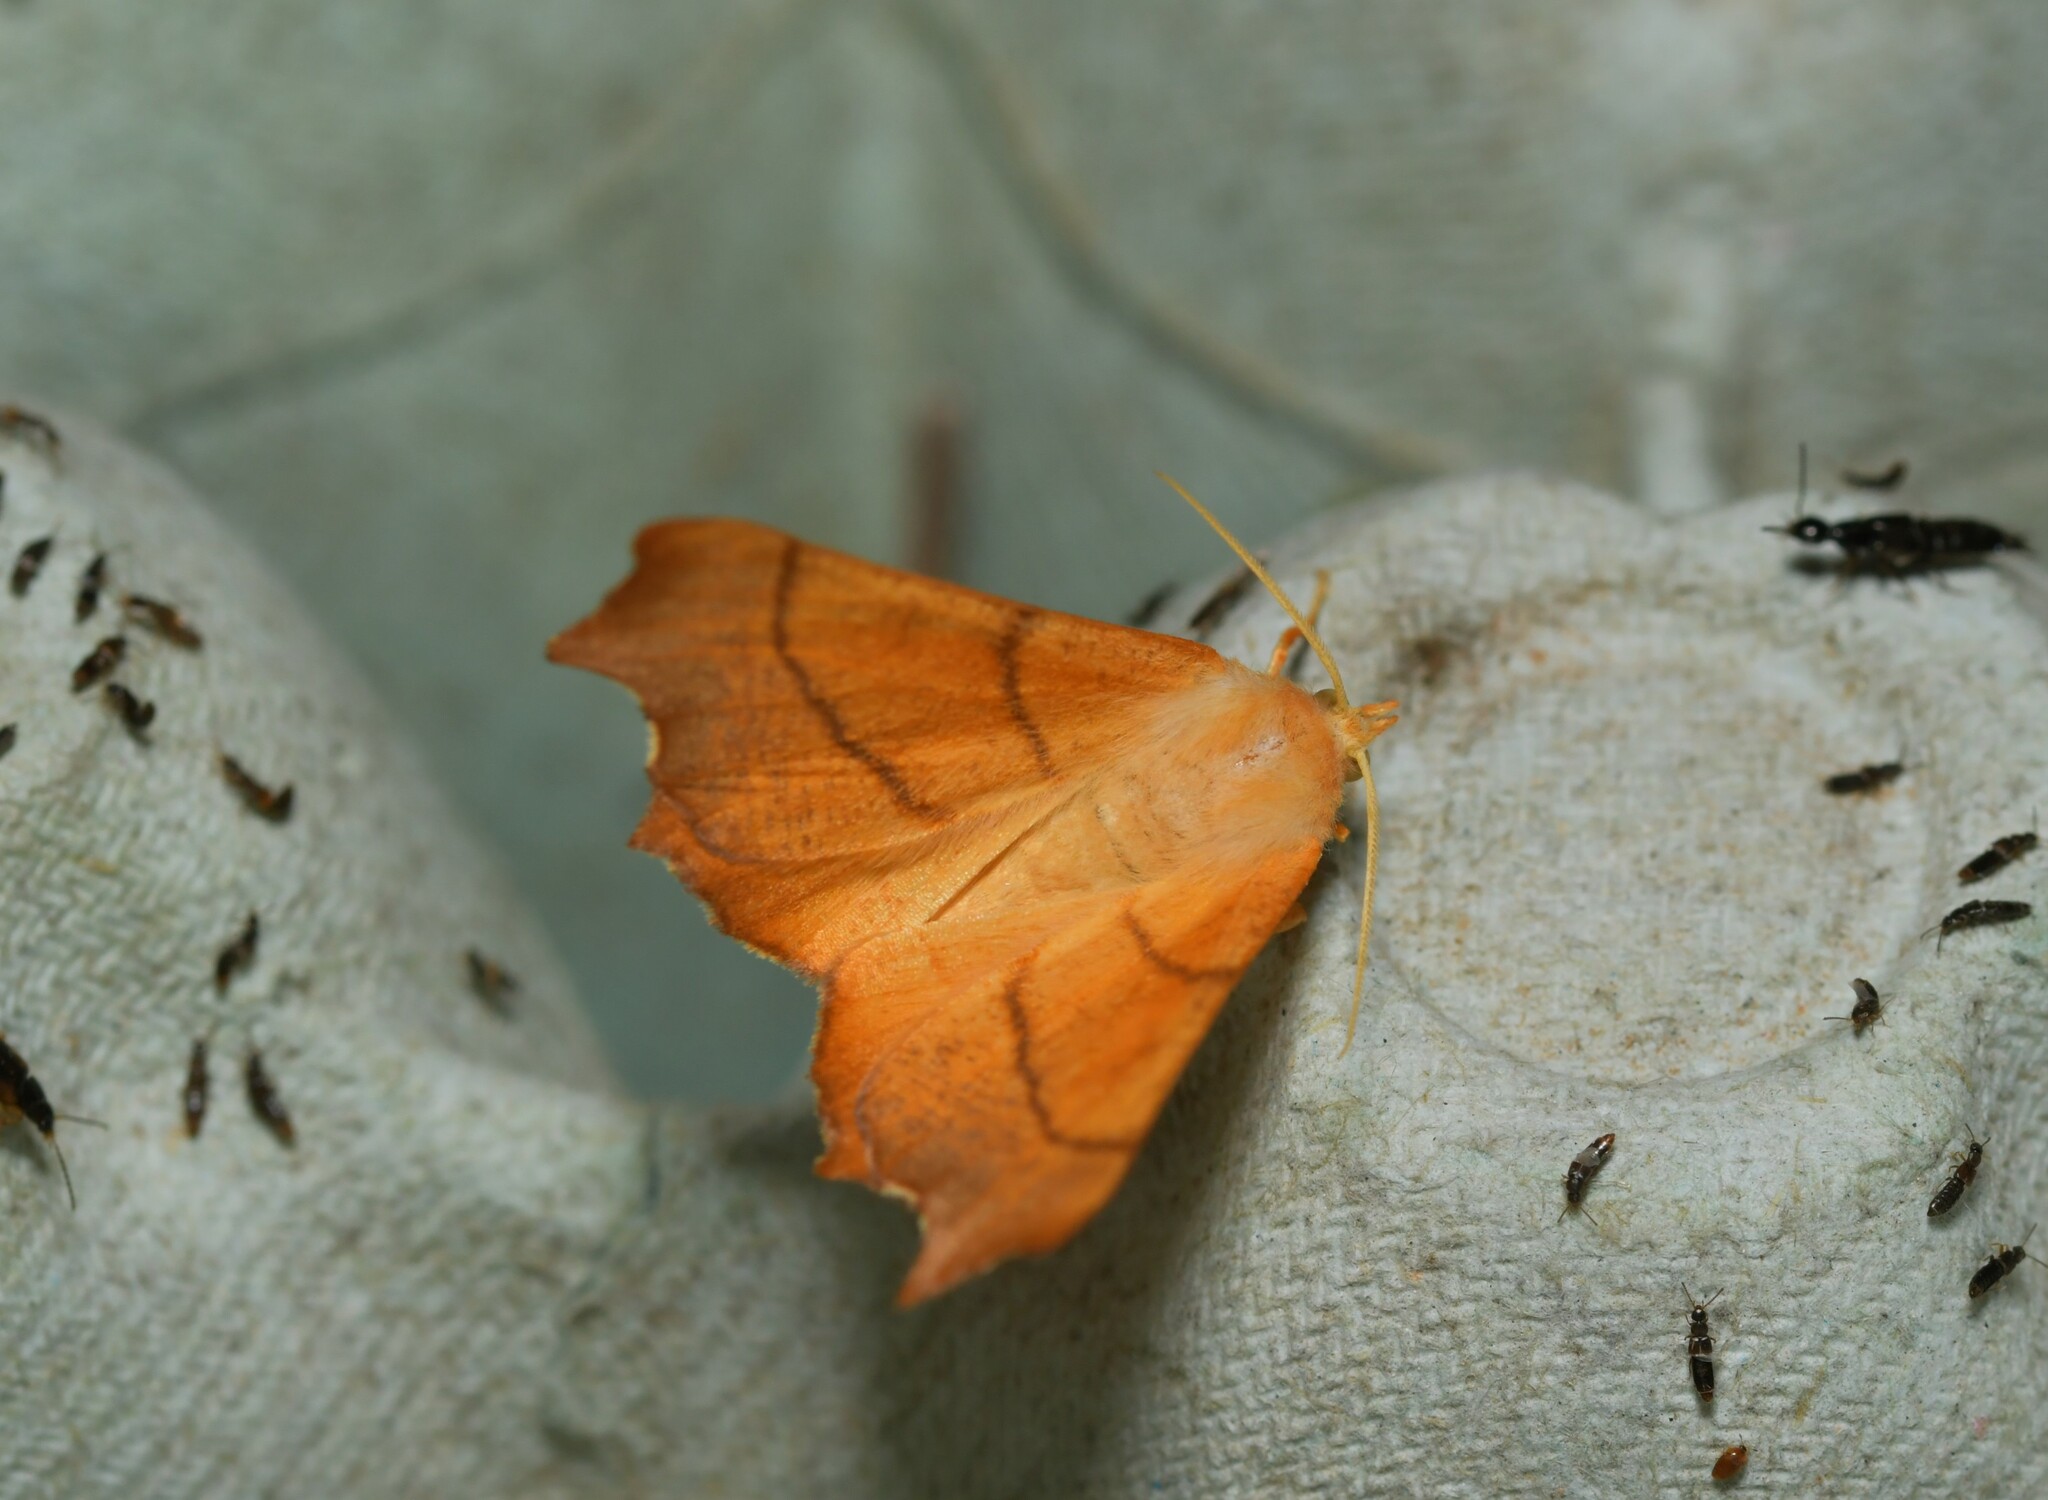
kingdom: Animalia
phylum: Arthropoda
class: Insecta
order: Lepidoptera
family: Geometridae
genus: Ennomos
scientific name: Ennomos fuscantaria
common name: Dusky thorn
